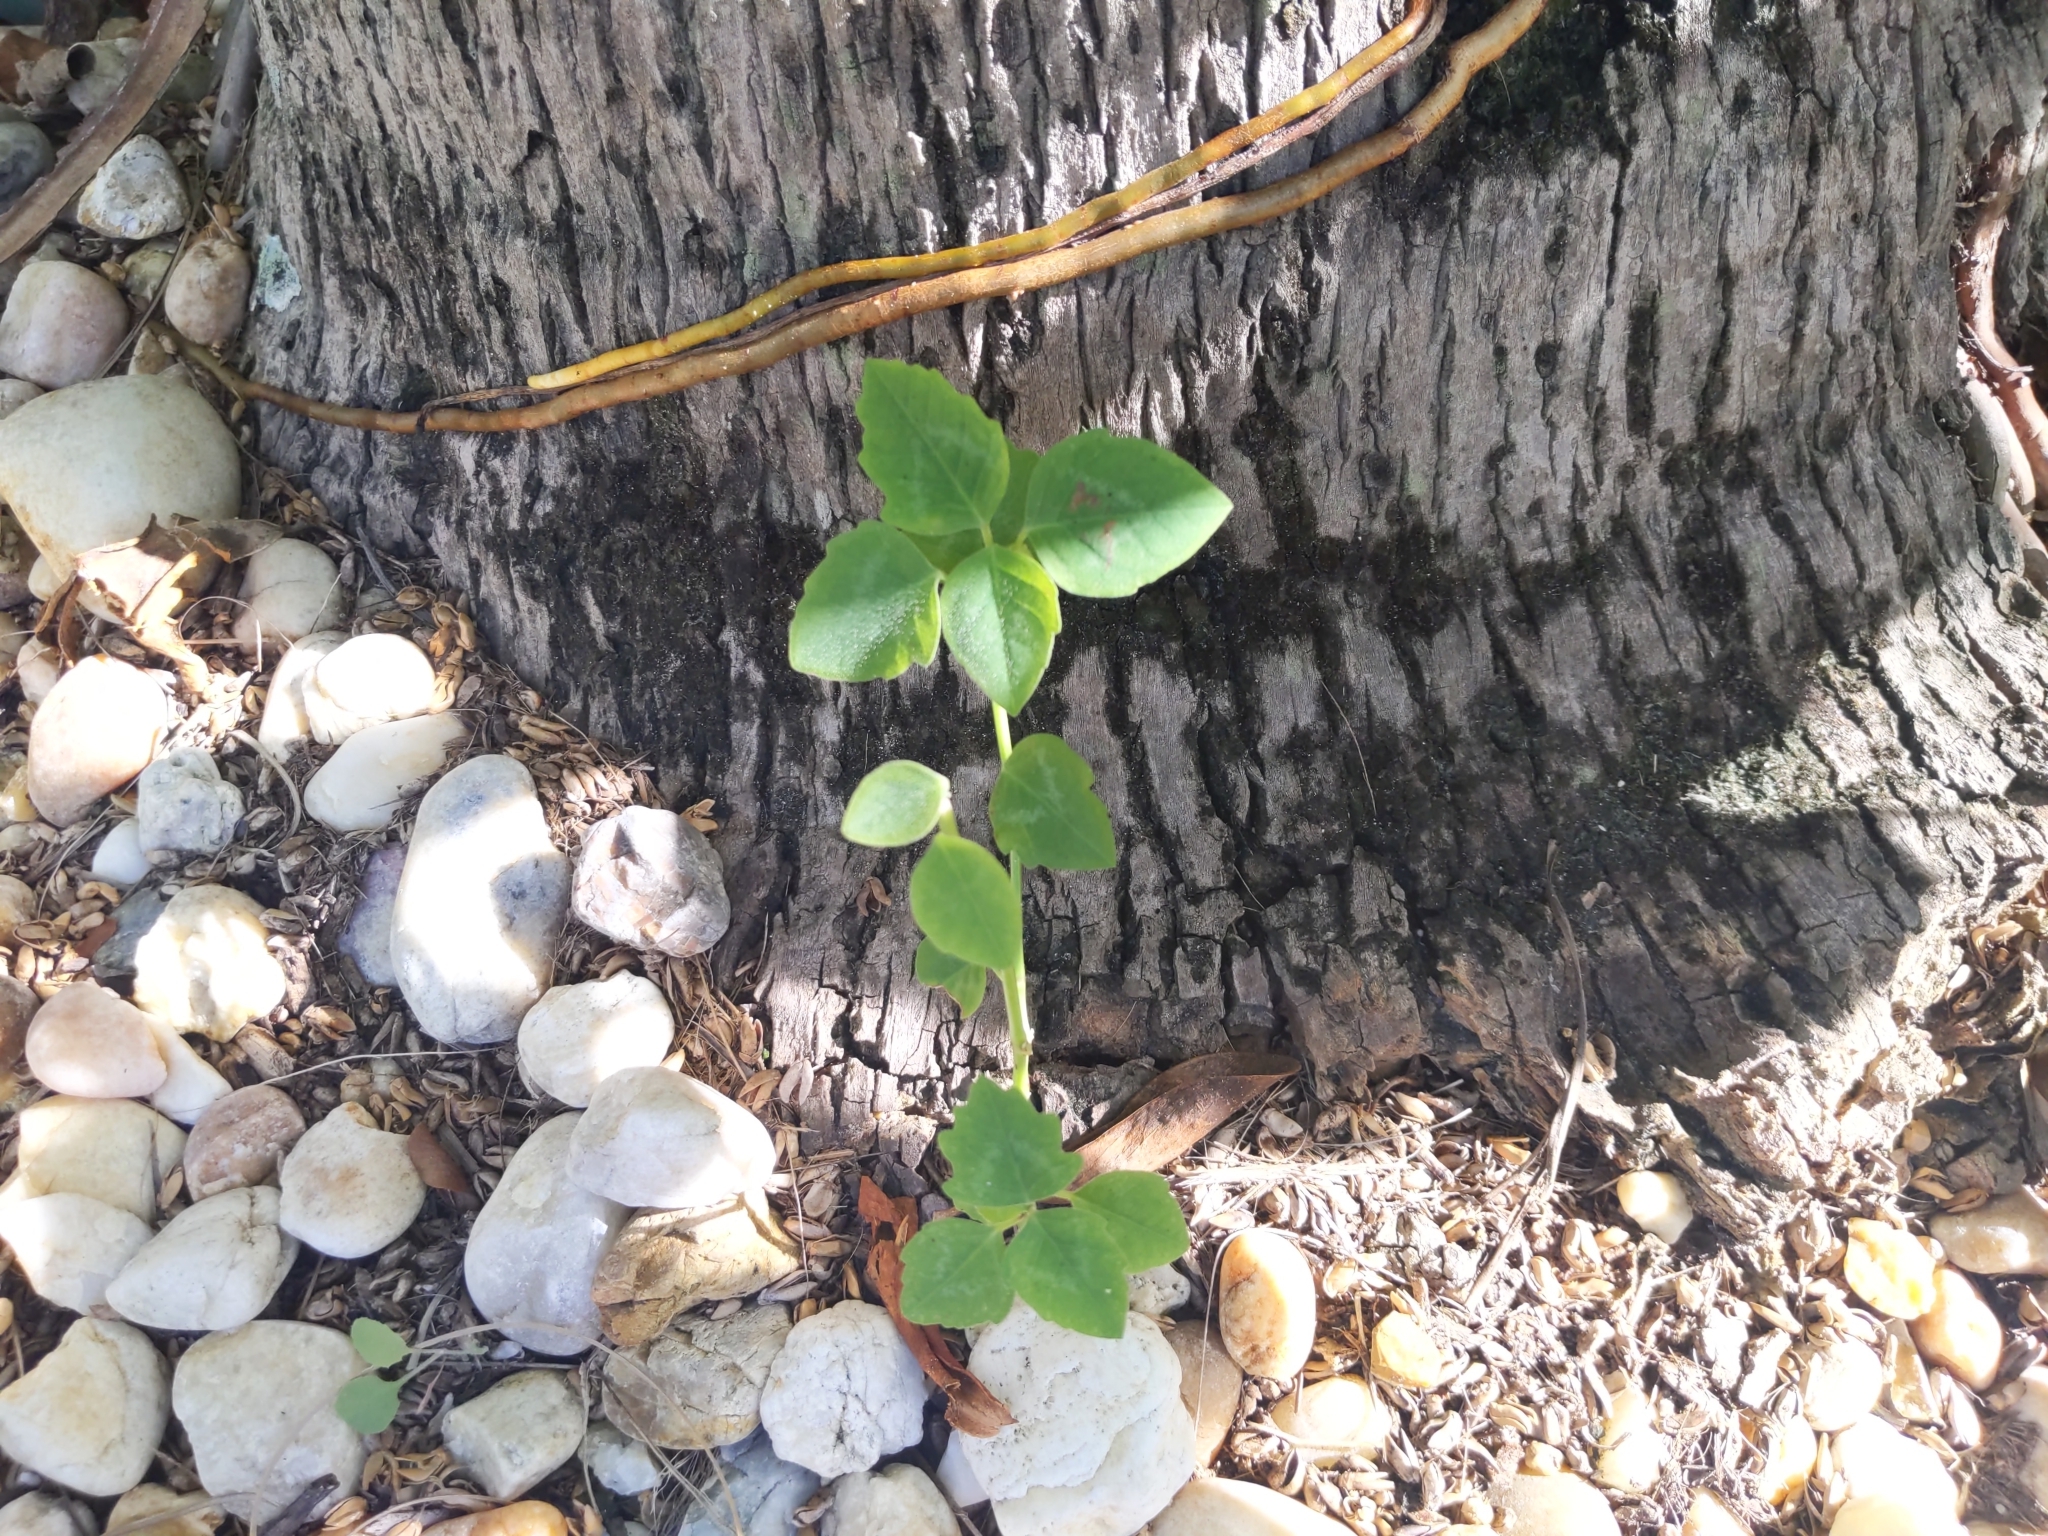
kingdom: Plantae
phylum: Tracheophyta
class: Magnoliopsida
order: Malpighiales
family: Euphorbiaceae
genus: Euphorbia
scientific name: Euphorbia graminea
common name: Grassleaf spurge
